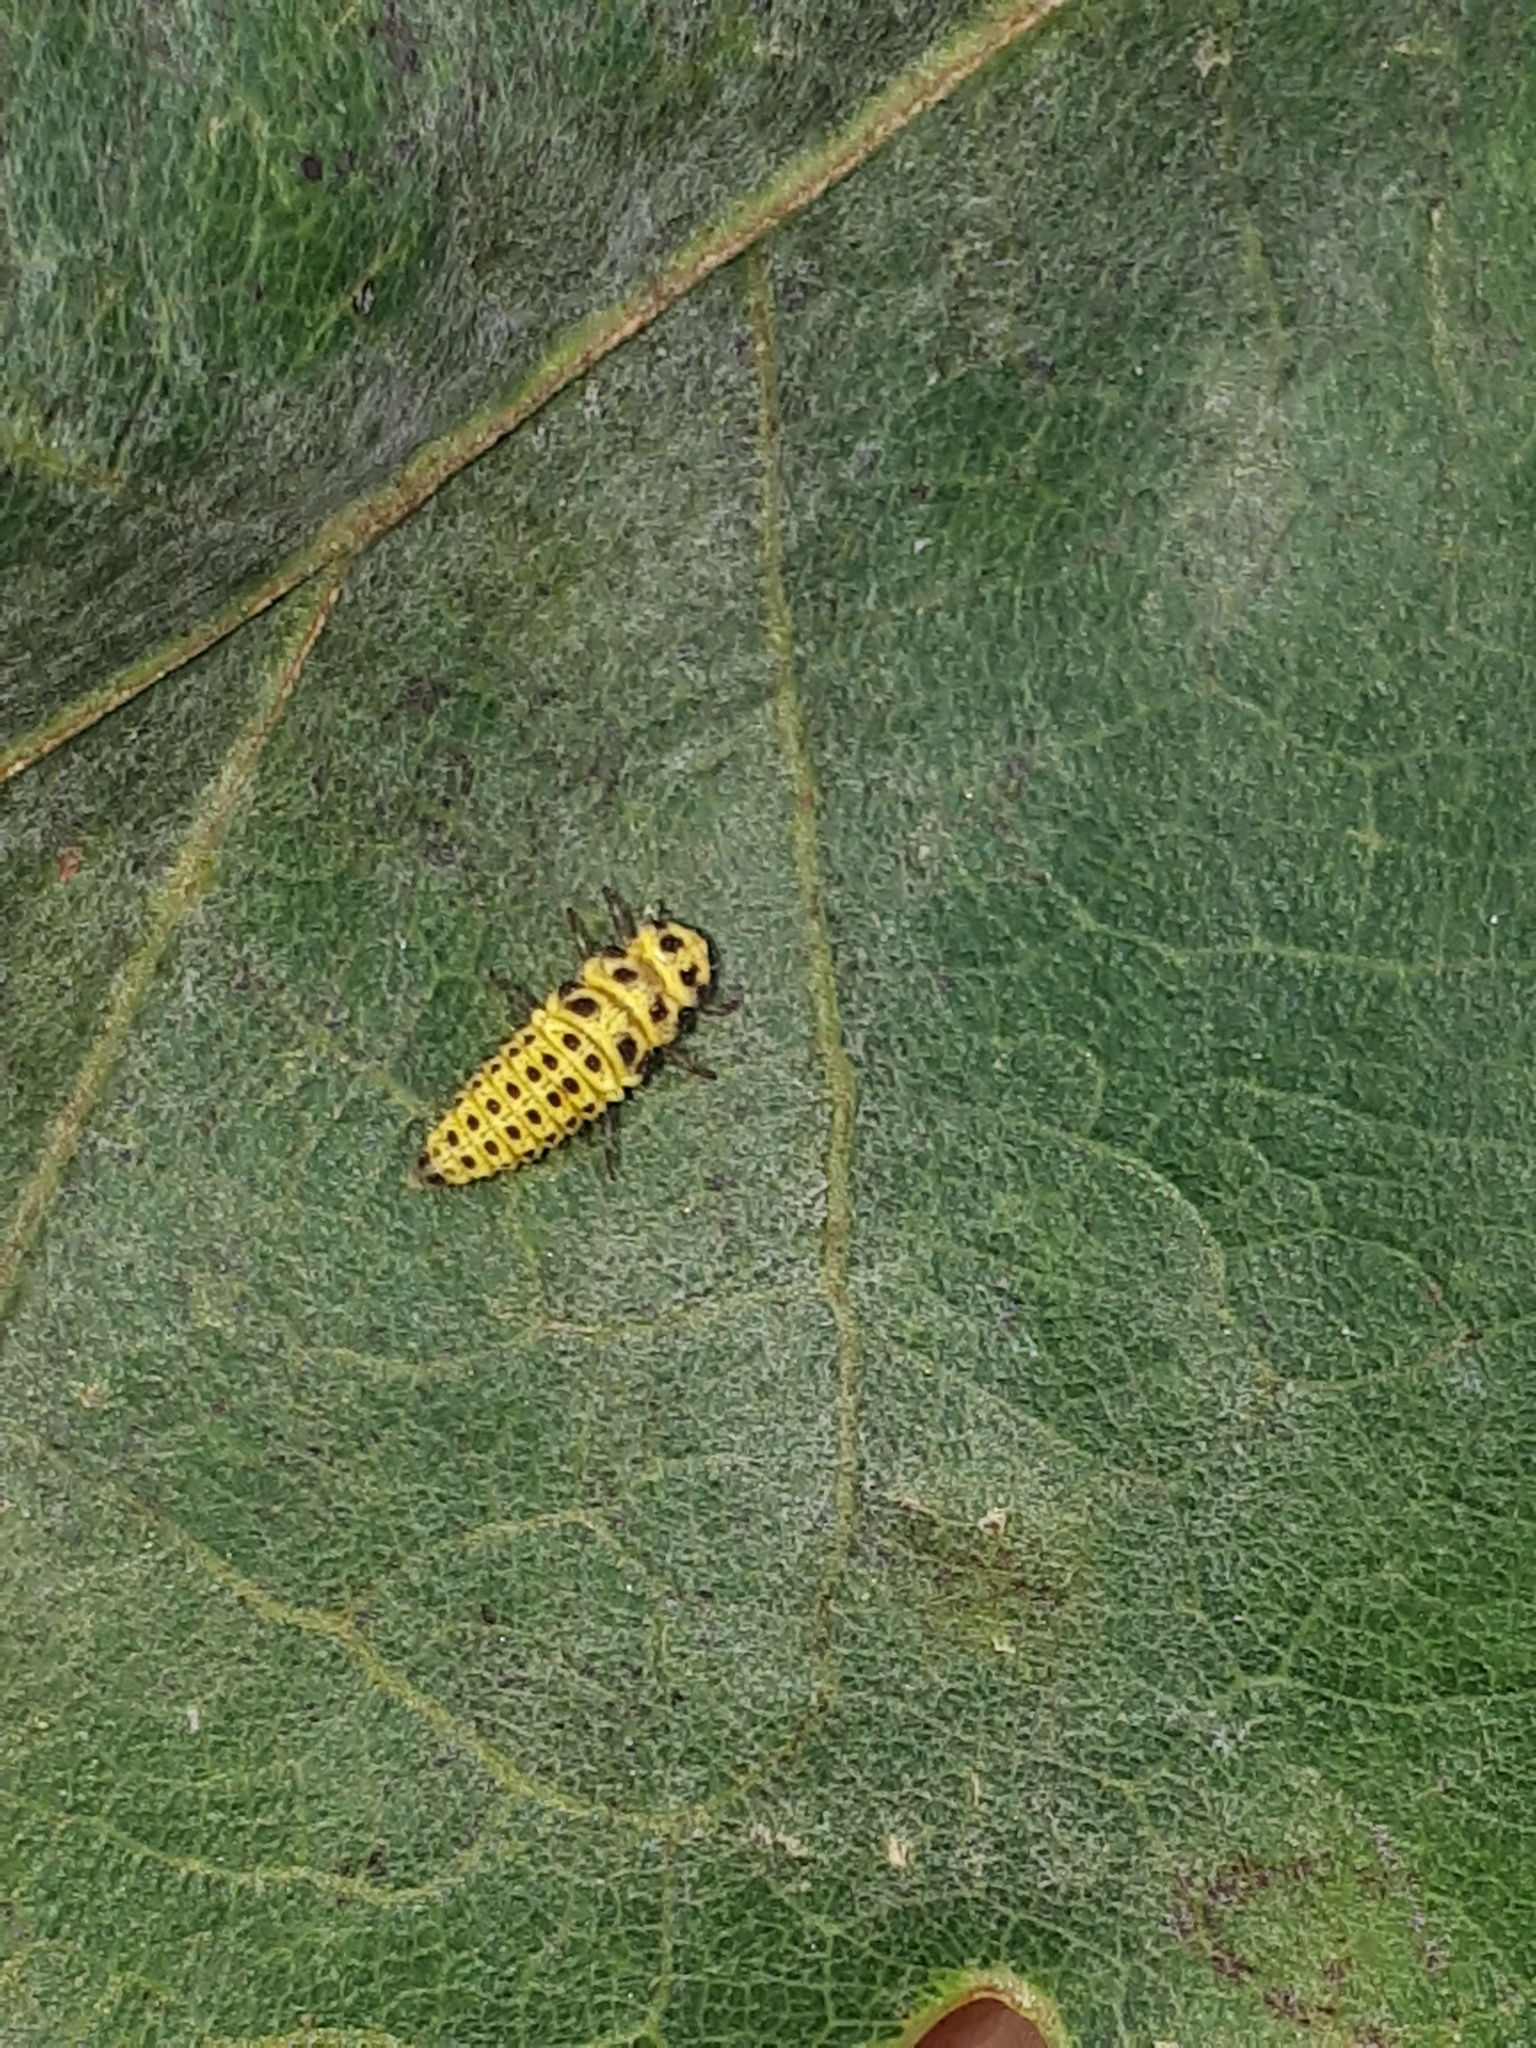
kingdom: Animalia
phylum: Arthropoda
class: Insecta
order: Coleoptera
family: Coccinellidae
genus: Psyllobora
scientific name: Psyllobora vigintiduopunctata
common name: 22-spot ladybird
